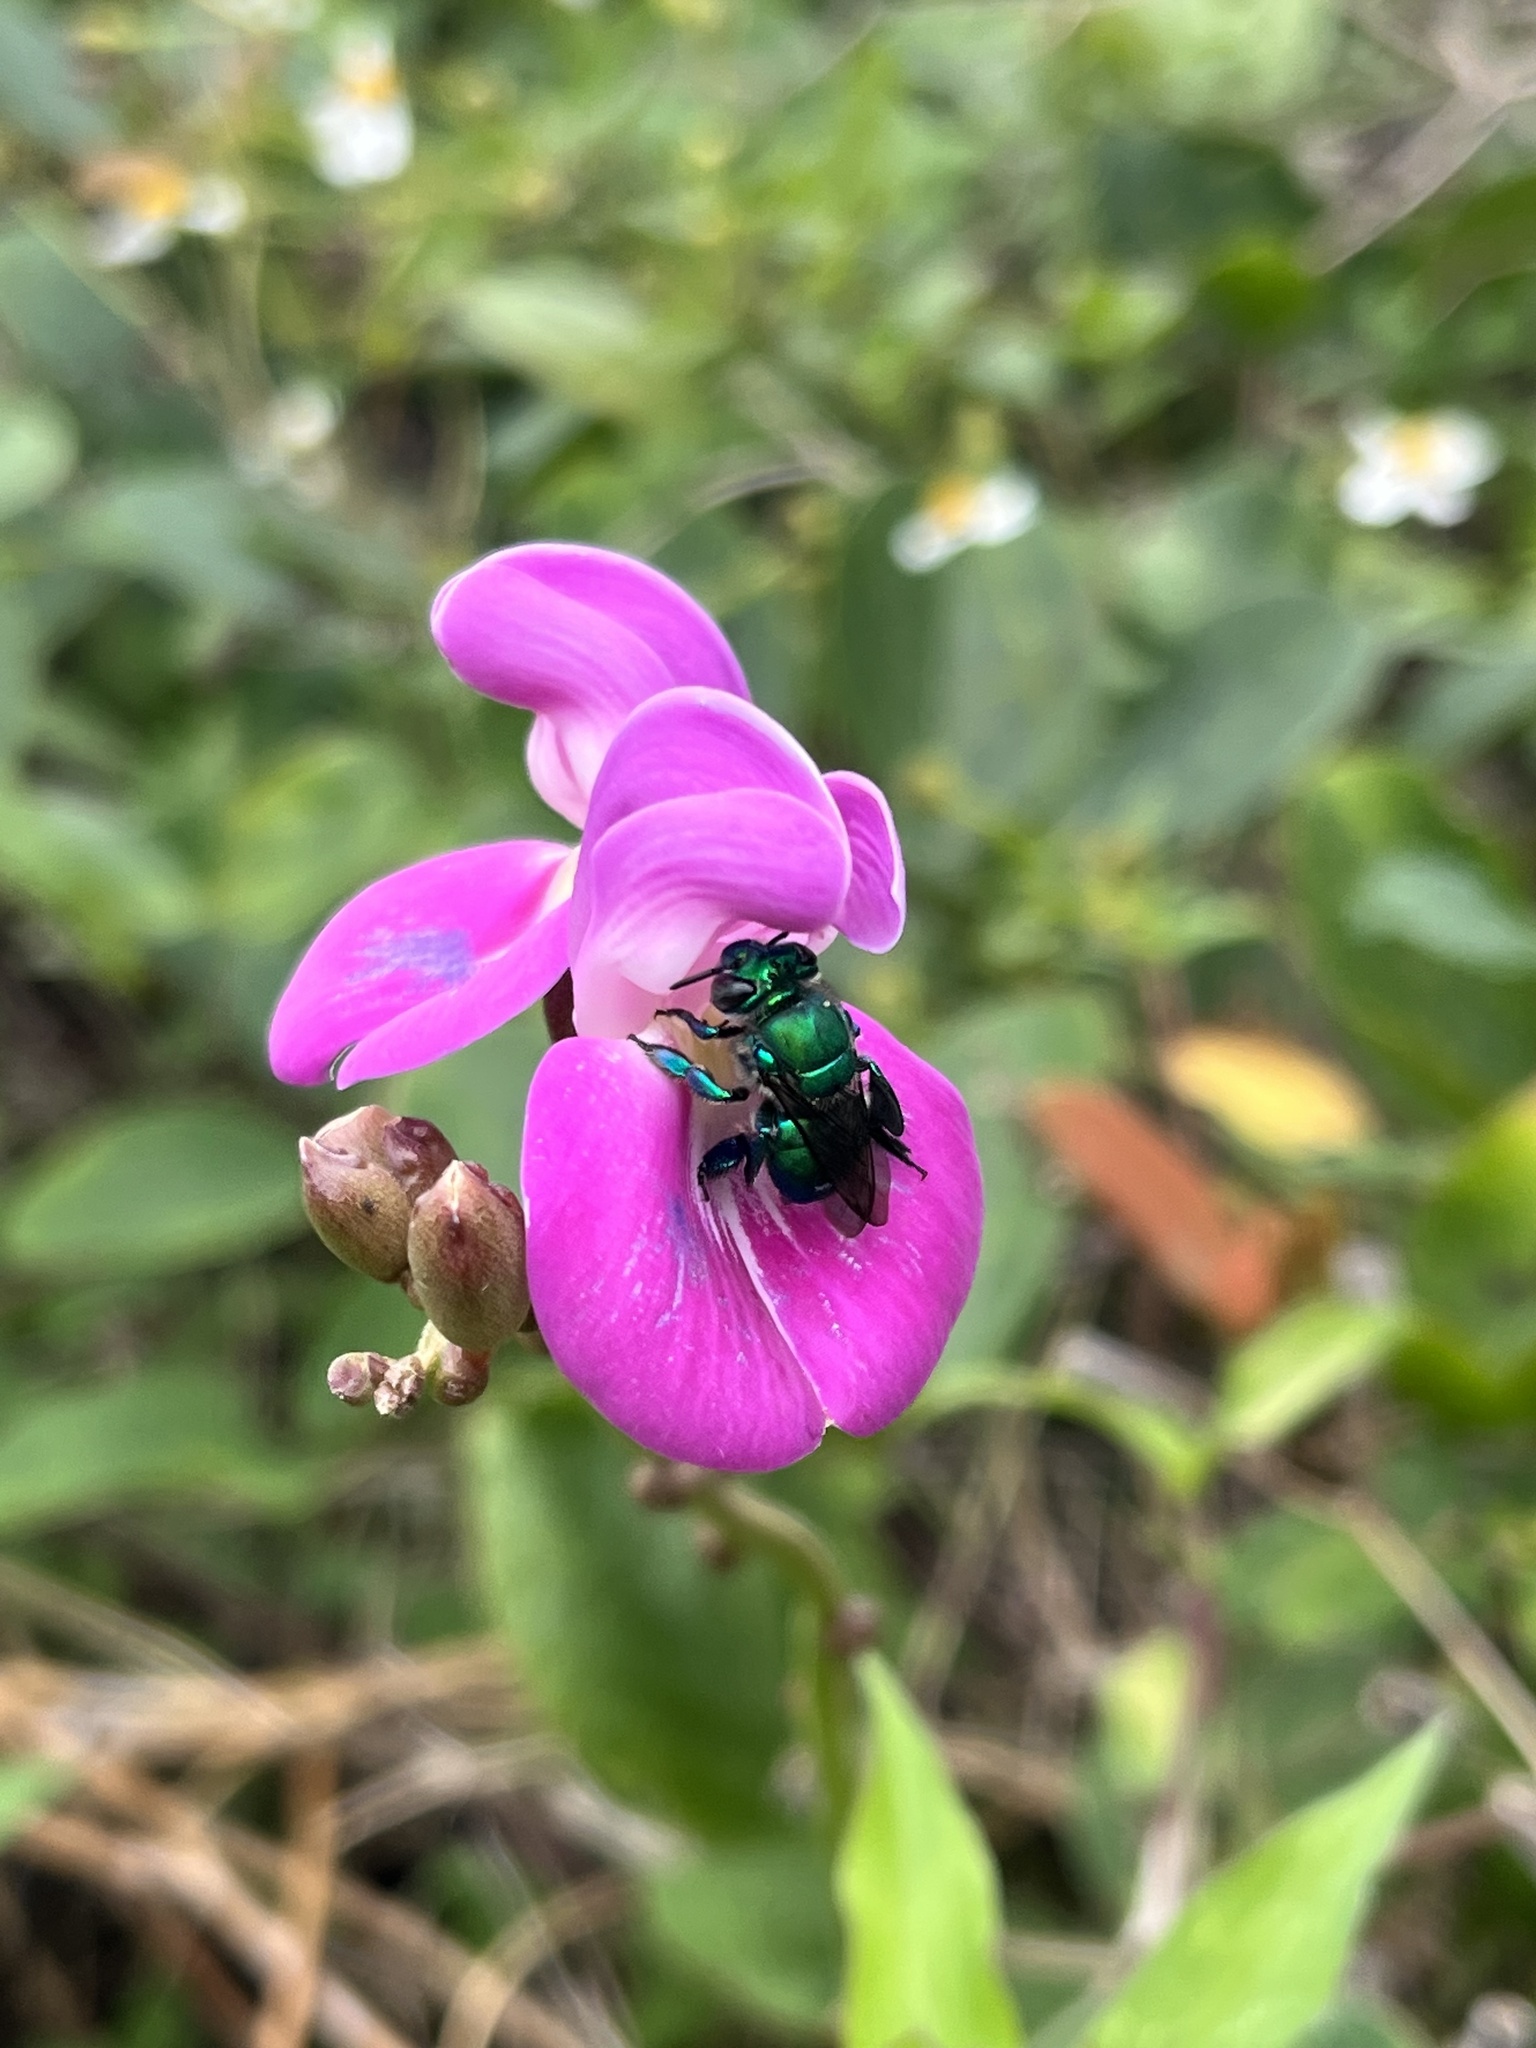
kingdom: Animalia
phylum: Arthropoda
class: Insecta
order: Hymenoptera
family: Apidae
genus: Euglossa
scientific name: Euglossa dilemma
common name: Green orchid bee
